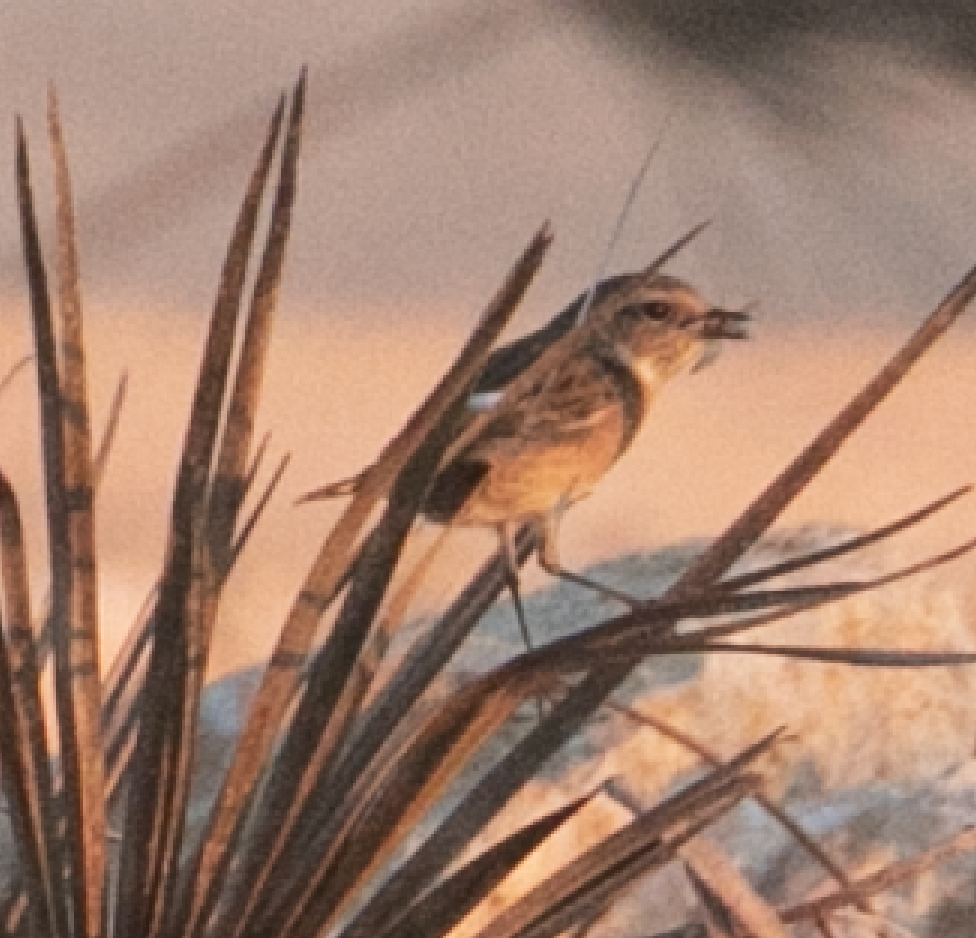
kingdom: Animalia
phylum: Chordata
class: Aves
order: Passeriformes
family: Muscicapidae
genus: Saxicola
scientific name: Saxicola rubicola
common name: European stonechat
